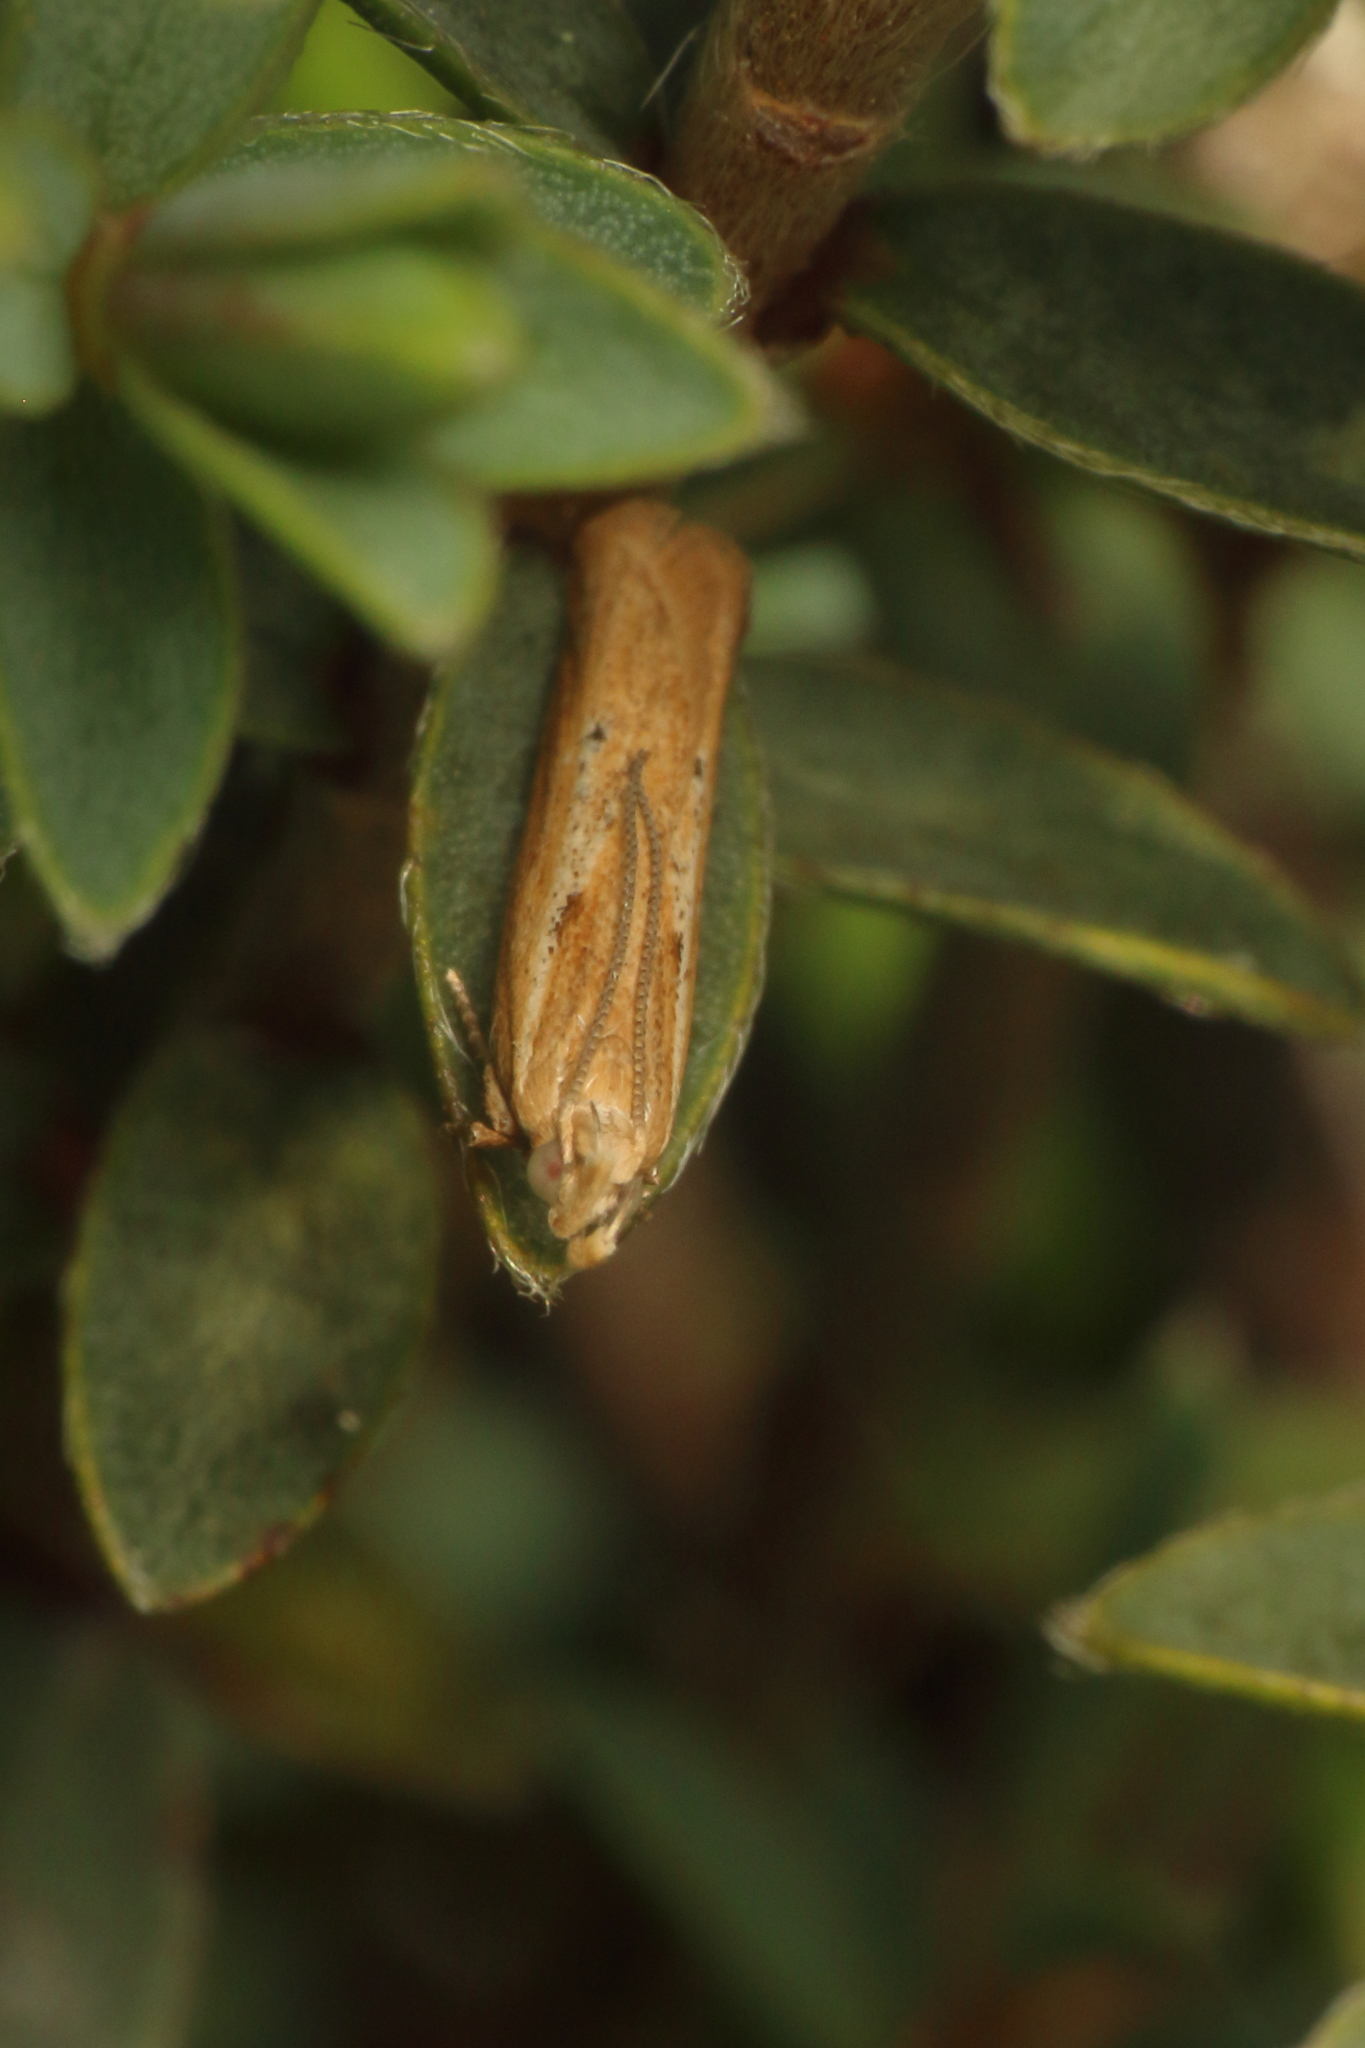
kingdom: Animalia
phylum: Arthropoda
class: Insecta
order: Lepidoptera
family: Depressariidae
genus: Eutorna
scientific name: Eutorna inornata
